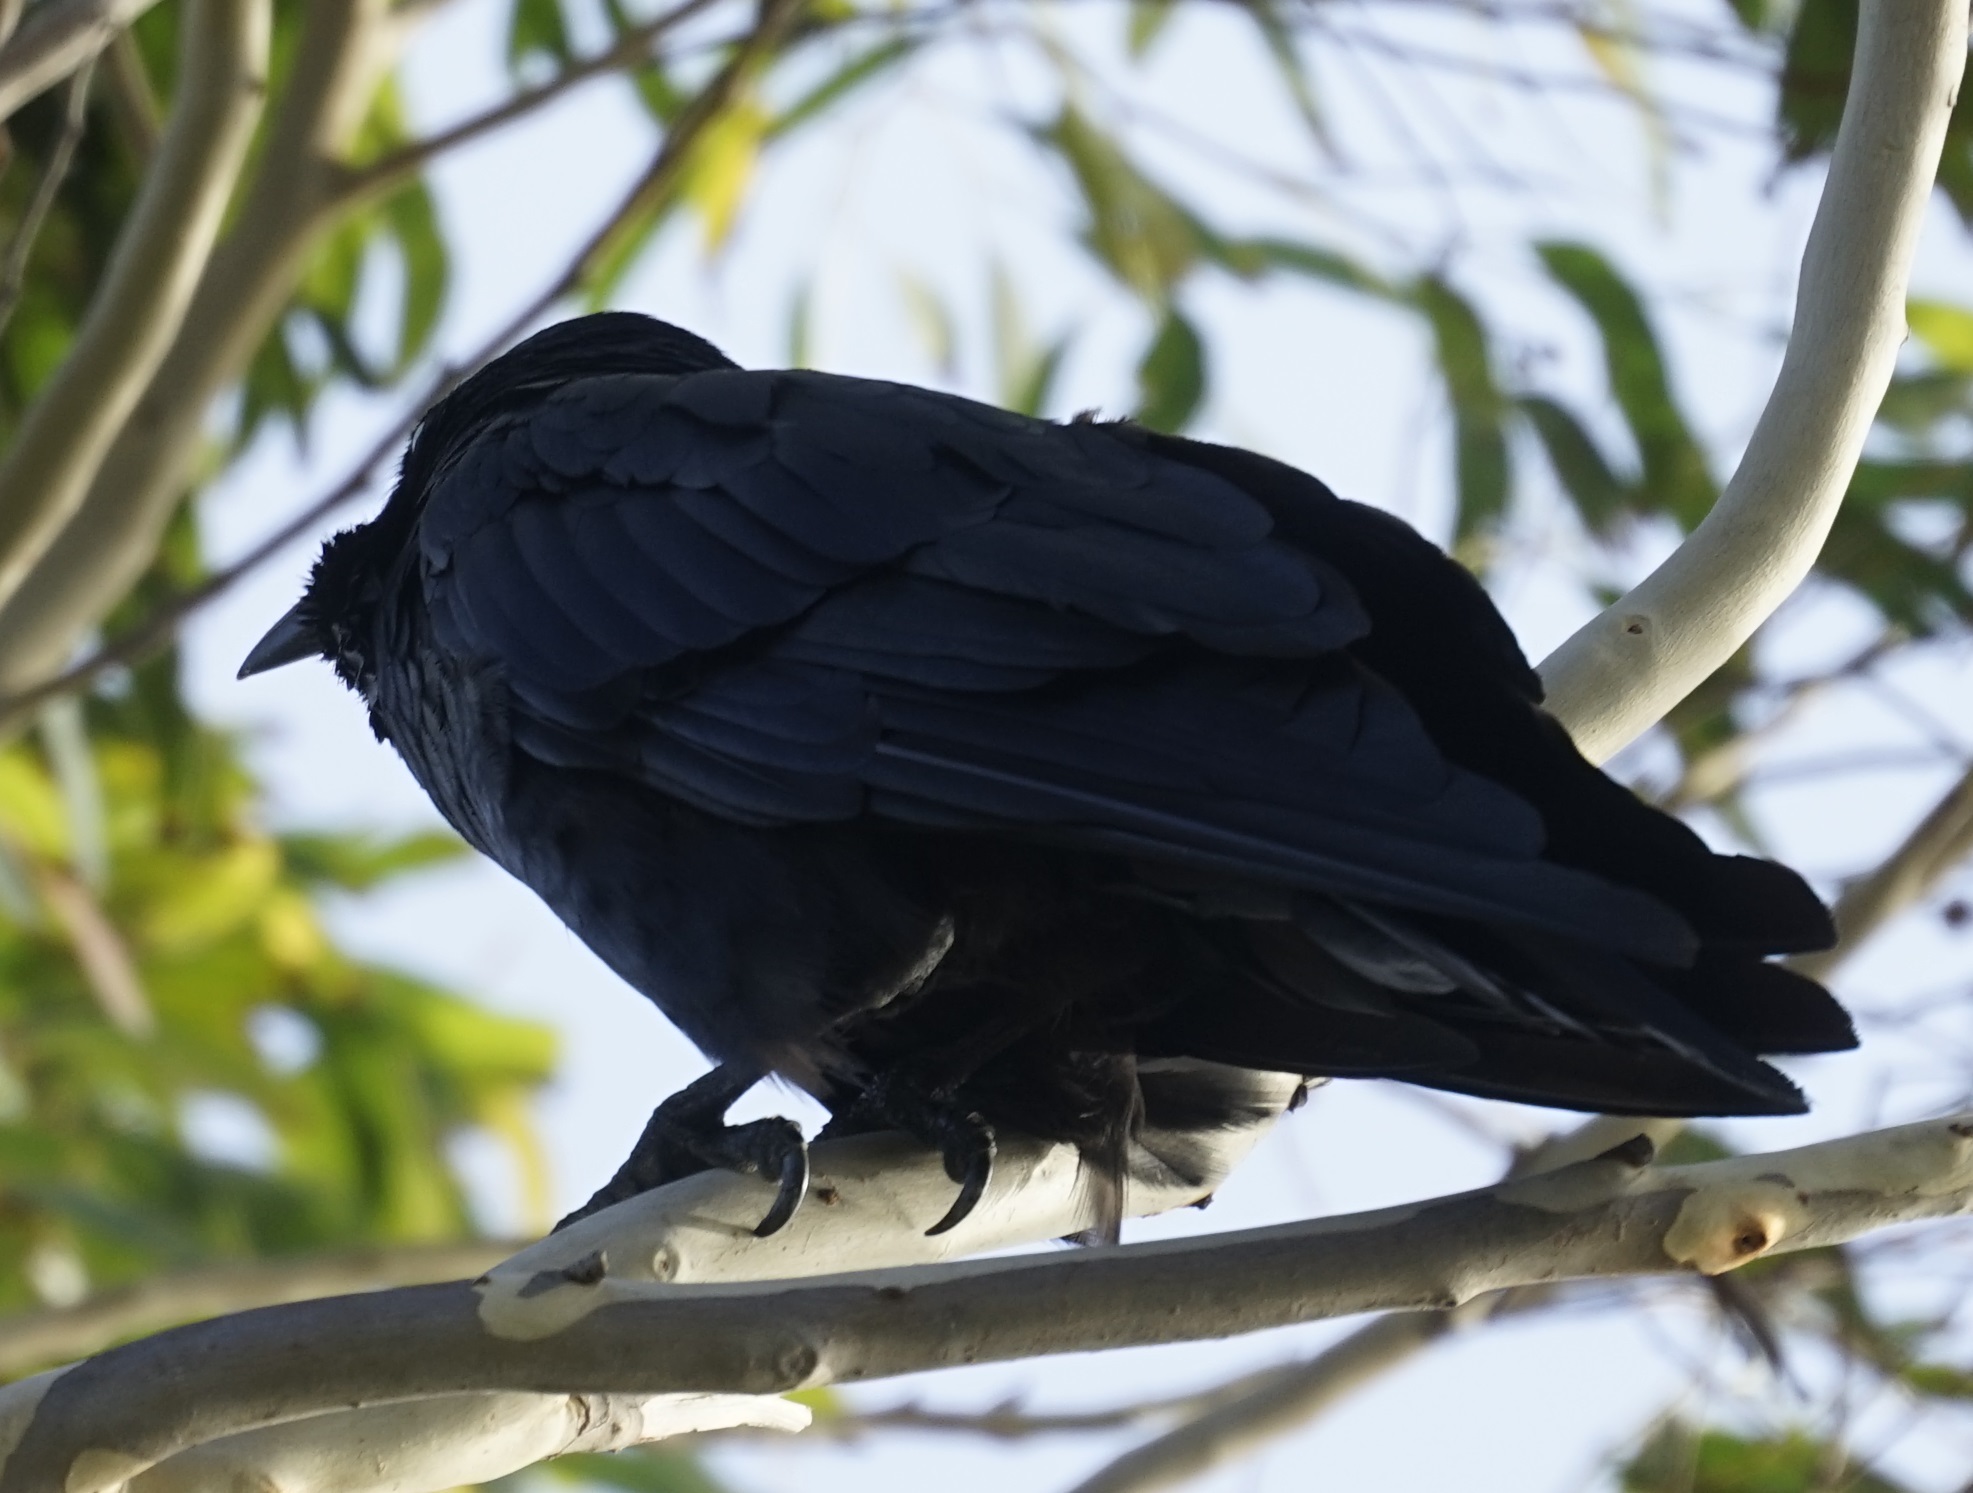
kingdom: Animalia
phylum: Chordata
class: Aves
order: Passeriformes
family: Corvidae
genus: Corvus
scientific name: Corvus coronoides
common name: Australian raven
